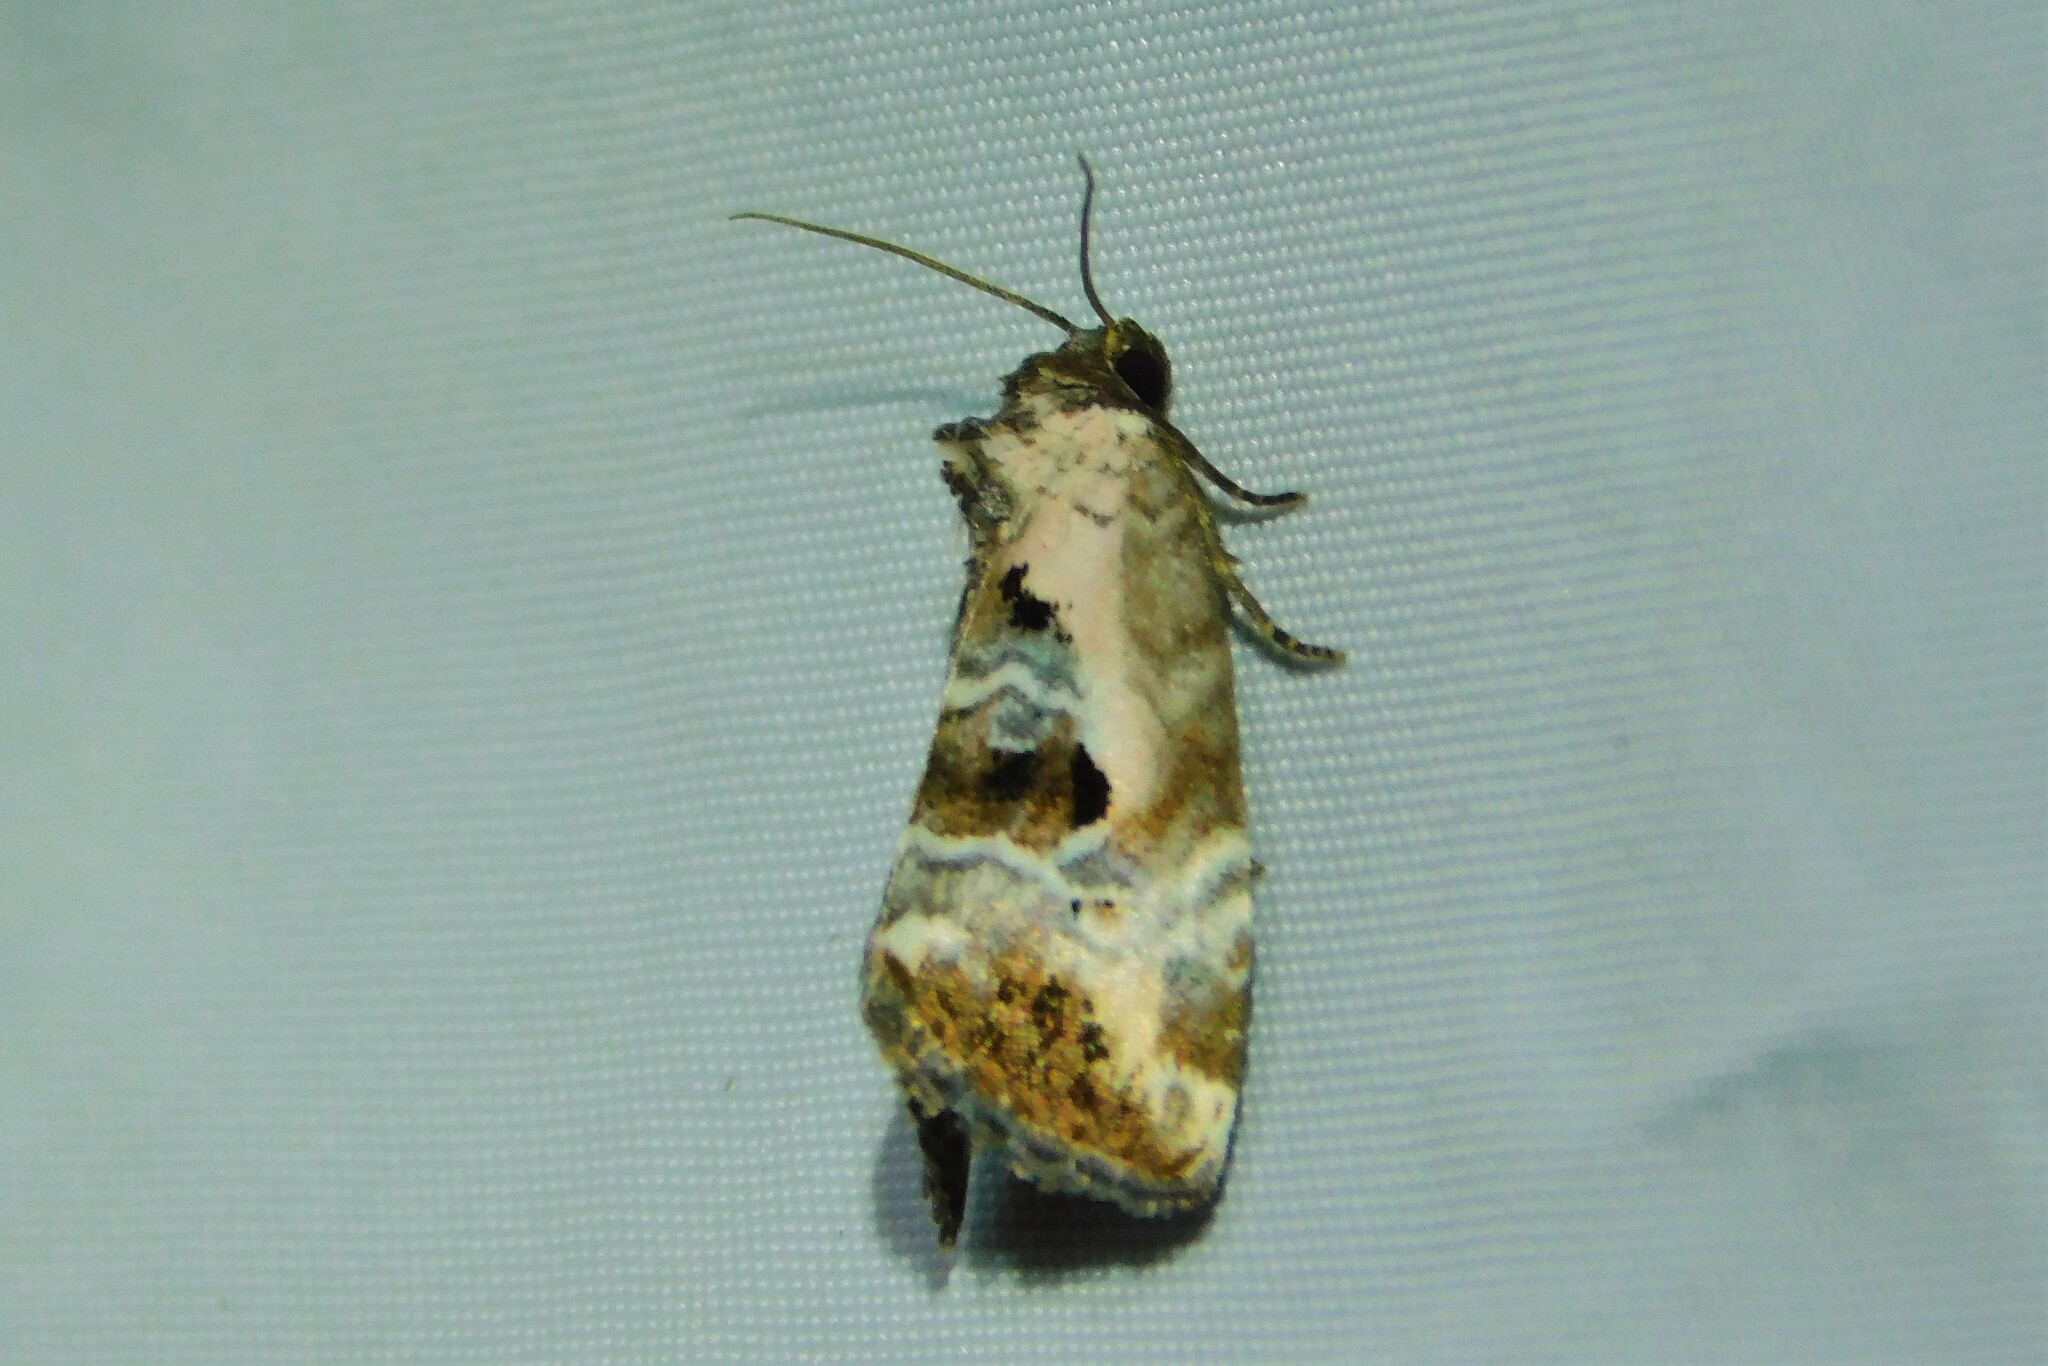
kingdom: Animalia
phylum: Arthropoda
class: Insecta
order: Lepidoptera
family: Noctuidae
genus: Elaphria
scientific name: Elaphria venustula
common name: Rosy marbled
